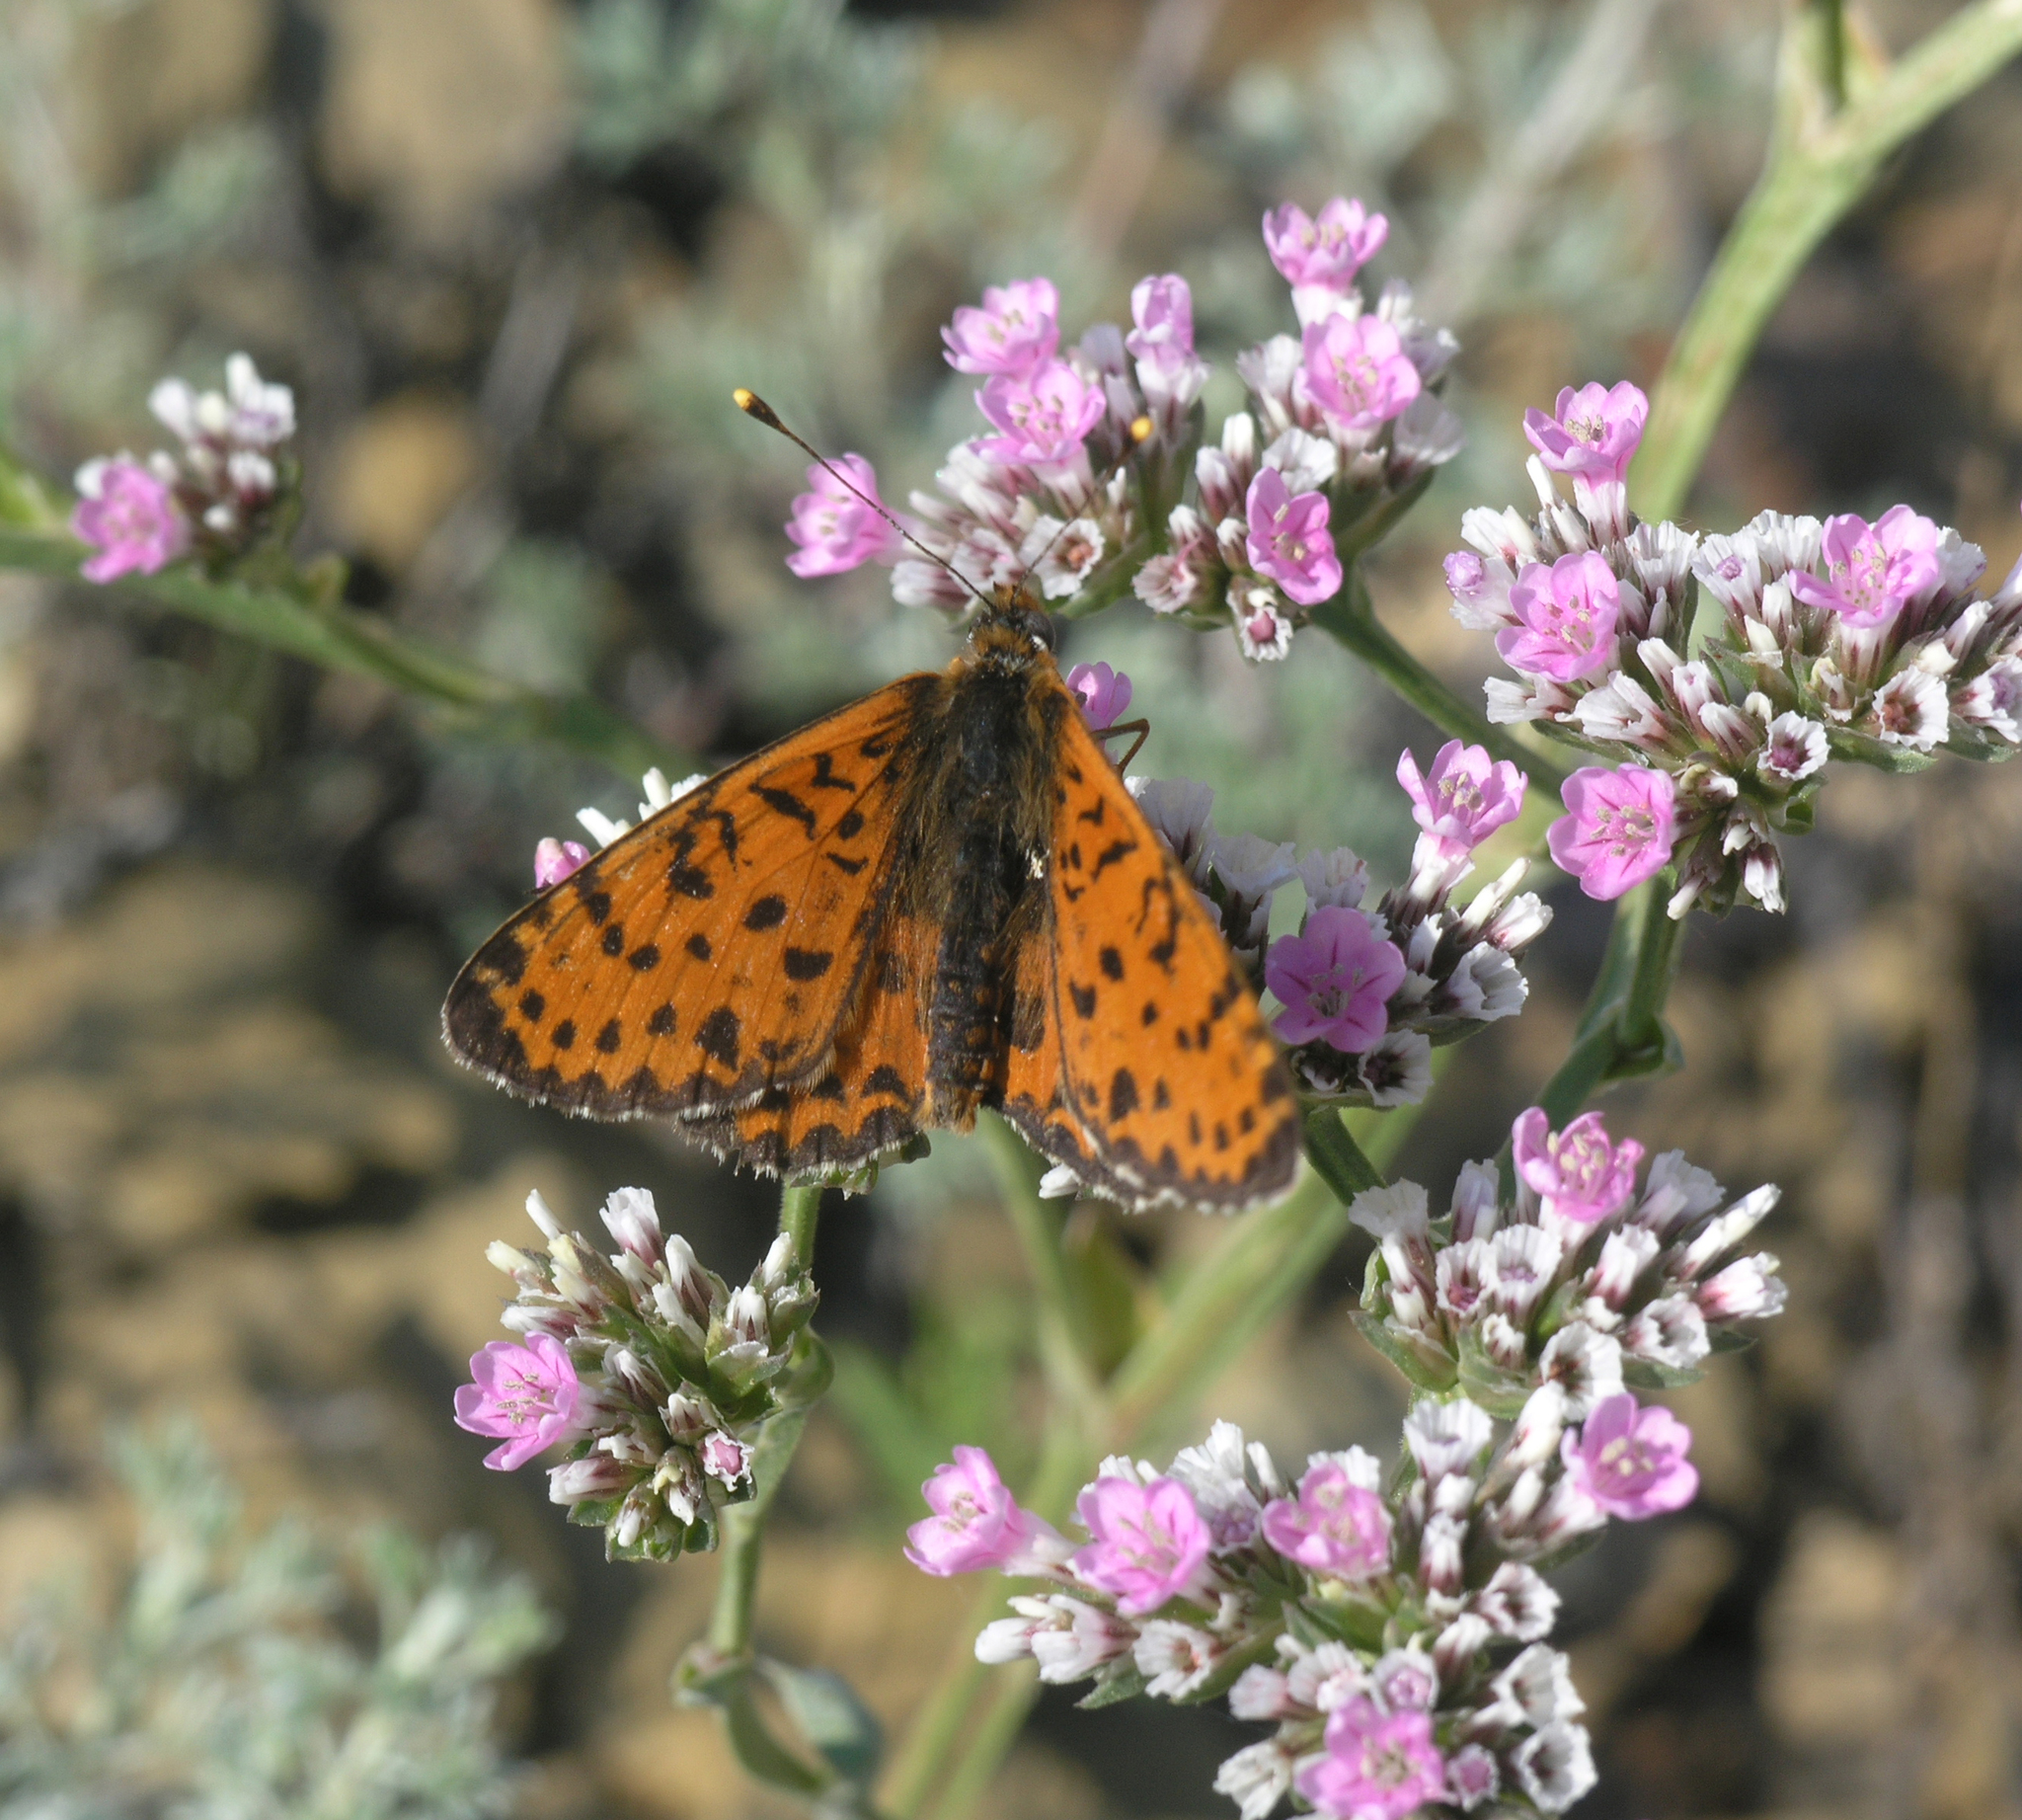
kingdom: Plantae
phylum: Tracheophyta
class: Magnoliopsida
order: Caryophyllales
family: Plumbaginaceae
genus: Goniolimon
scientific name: Goniolimon speciosum
